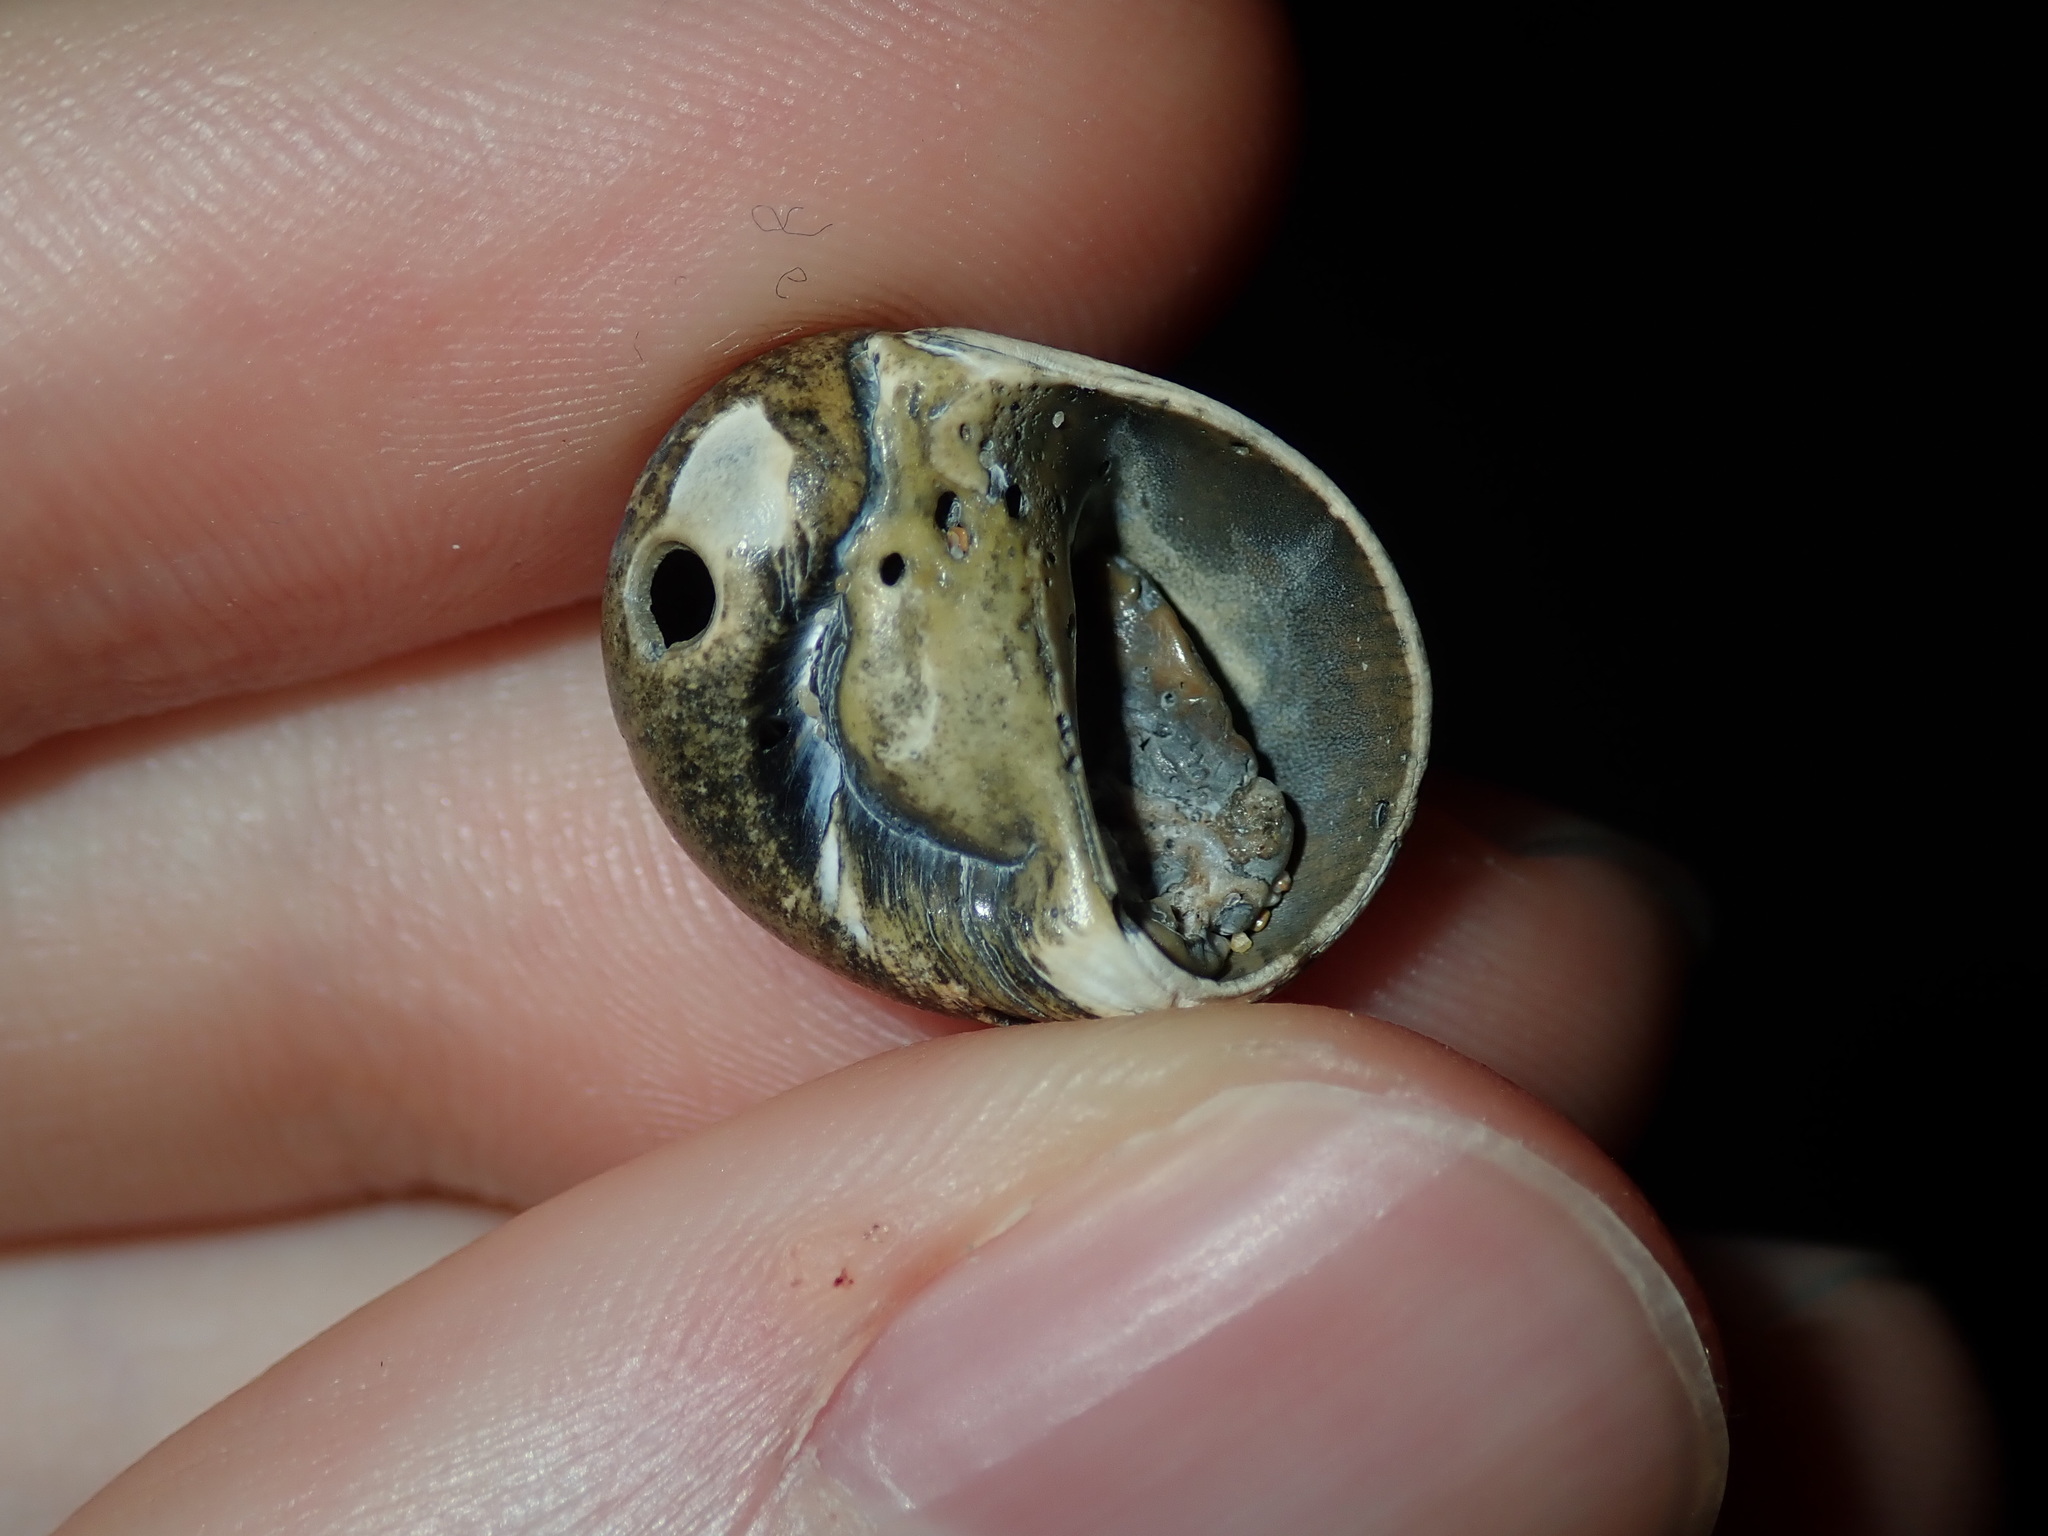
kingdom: Animalia
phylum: Mollusca
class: Gastropoda
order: Littorinimorpha
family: Naticidae
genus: Conuber
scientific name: Conuber incei
